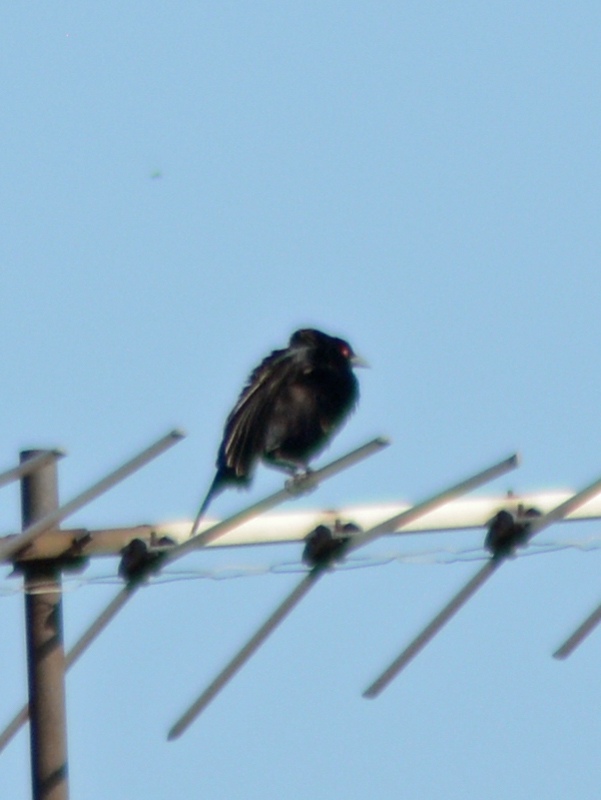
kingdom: Animalia
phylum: Chordata
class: Aves
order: Passeriformes
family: Icteridae
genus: Molothrus
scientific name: Molothrus aeneus
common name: Bronzed cowbird
